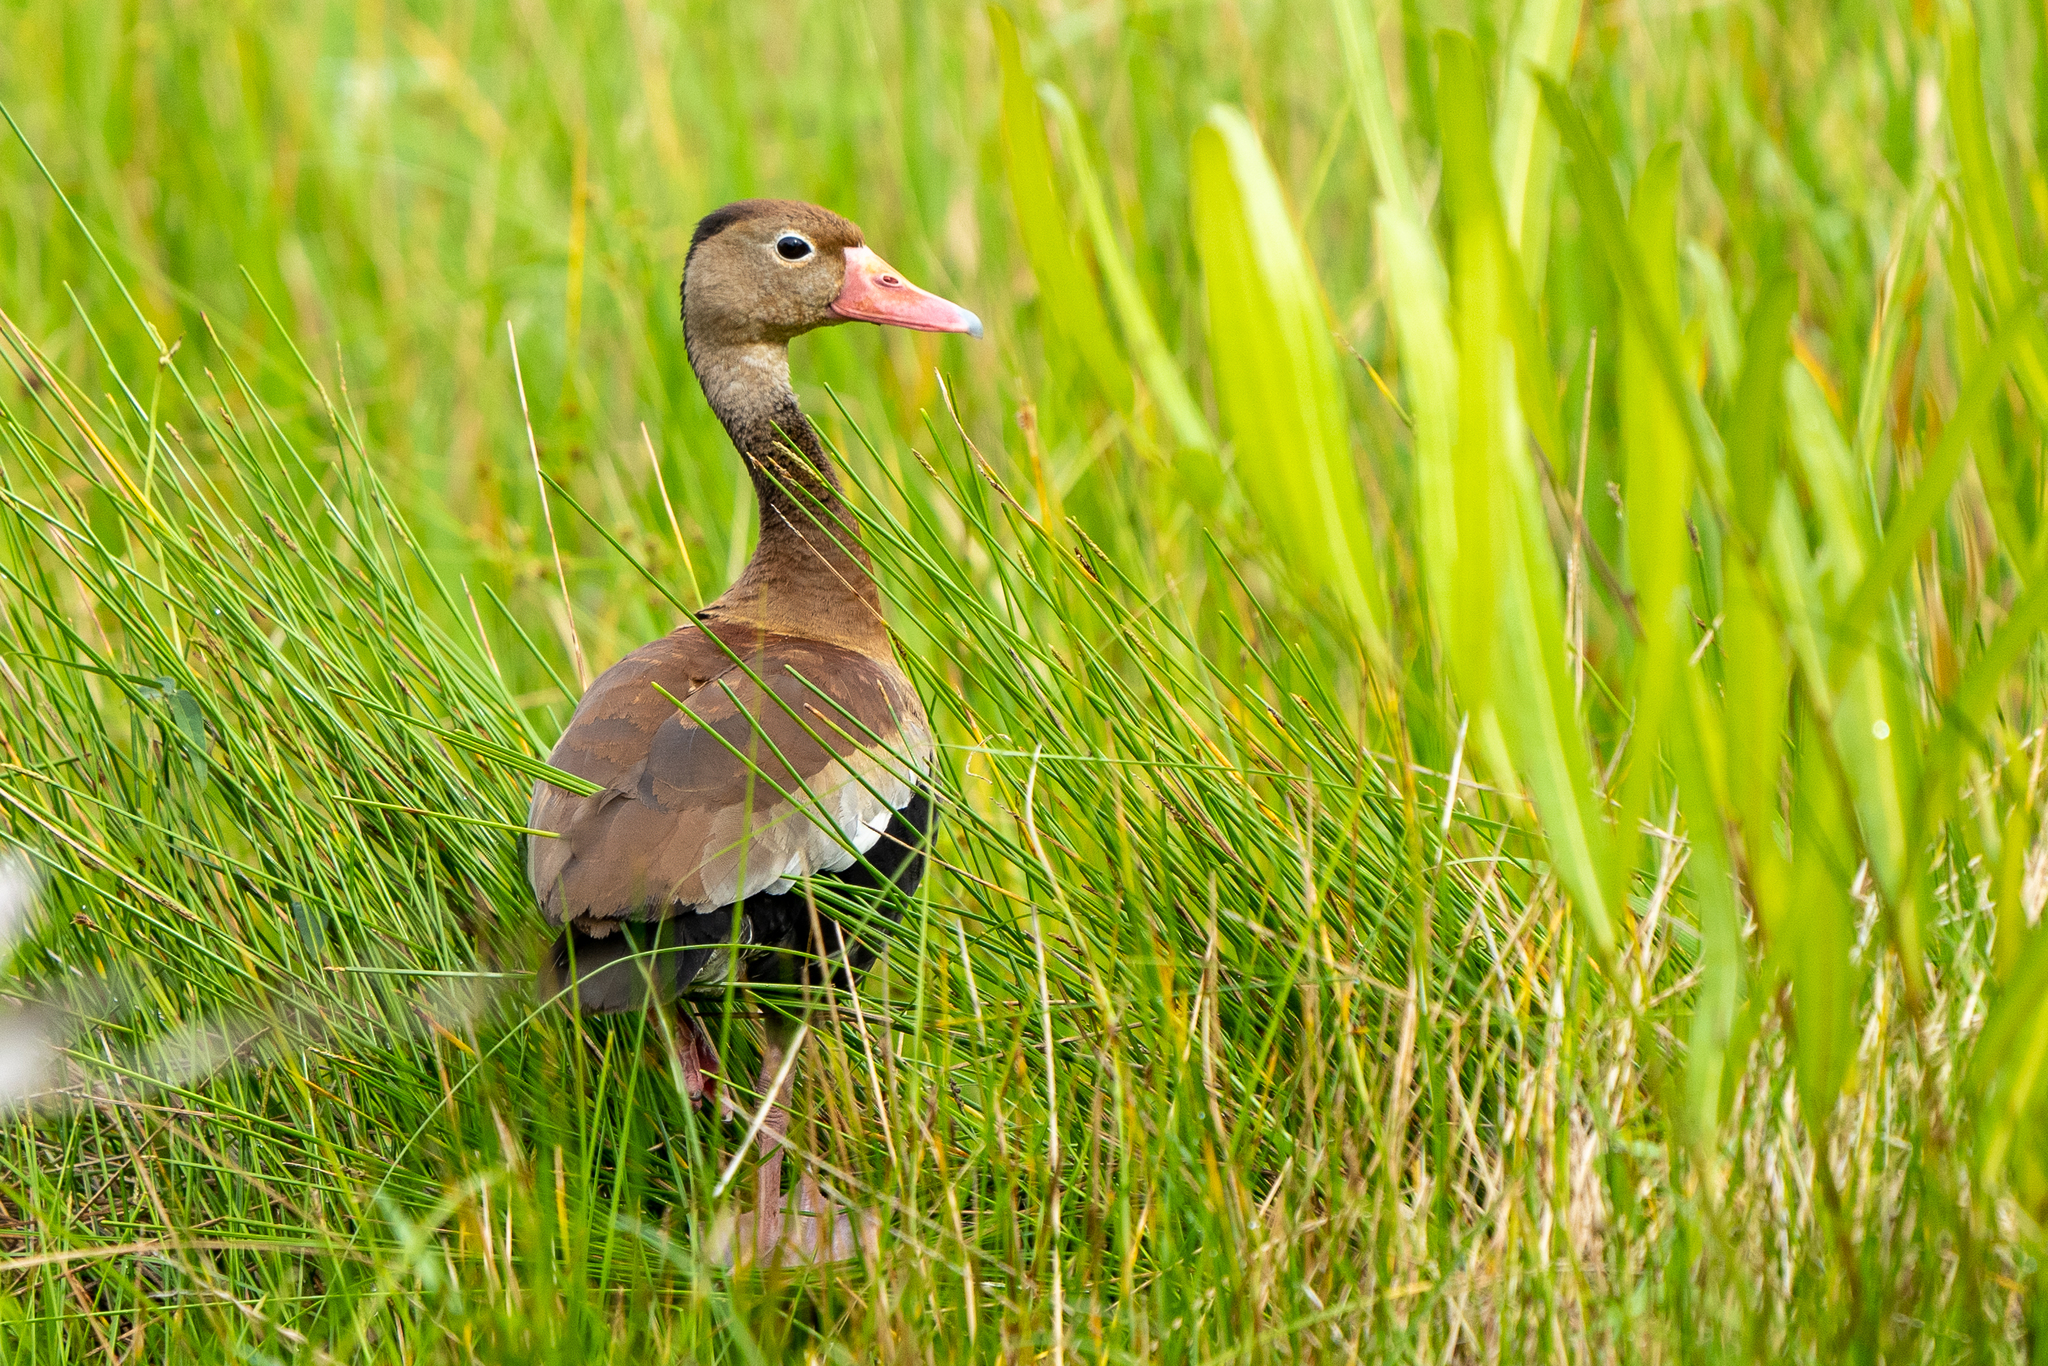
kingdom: Animalia
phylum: Chordata
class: Aves
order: Anseriformes
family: Anatidae
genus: Dendrocygna
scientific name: Dendrocygna autumnalis
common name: Black-bellied whistling duck
